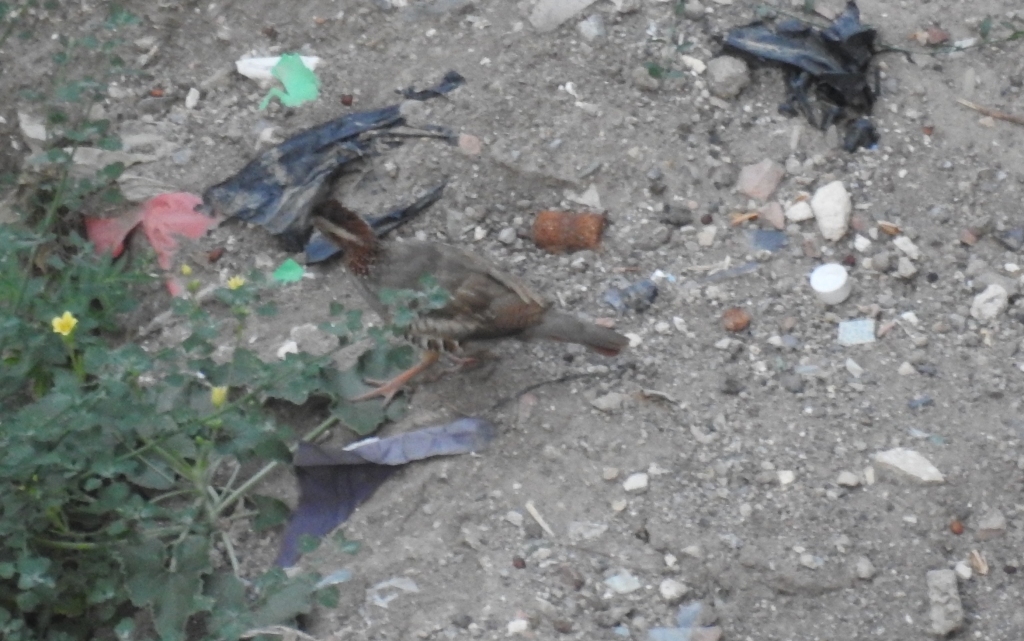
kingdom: Animalia
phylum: Chordata
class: Aves
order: Galliformes
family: Phasianidae
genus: Alectoris
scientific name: Alectoris barbara
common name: Barbary partridge
